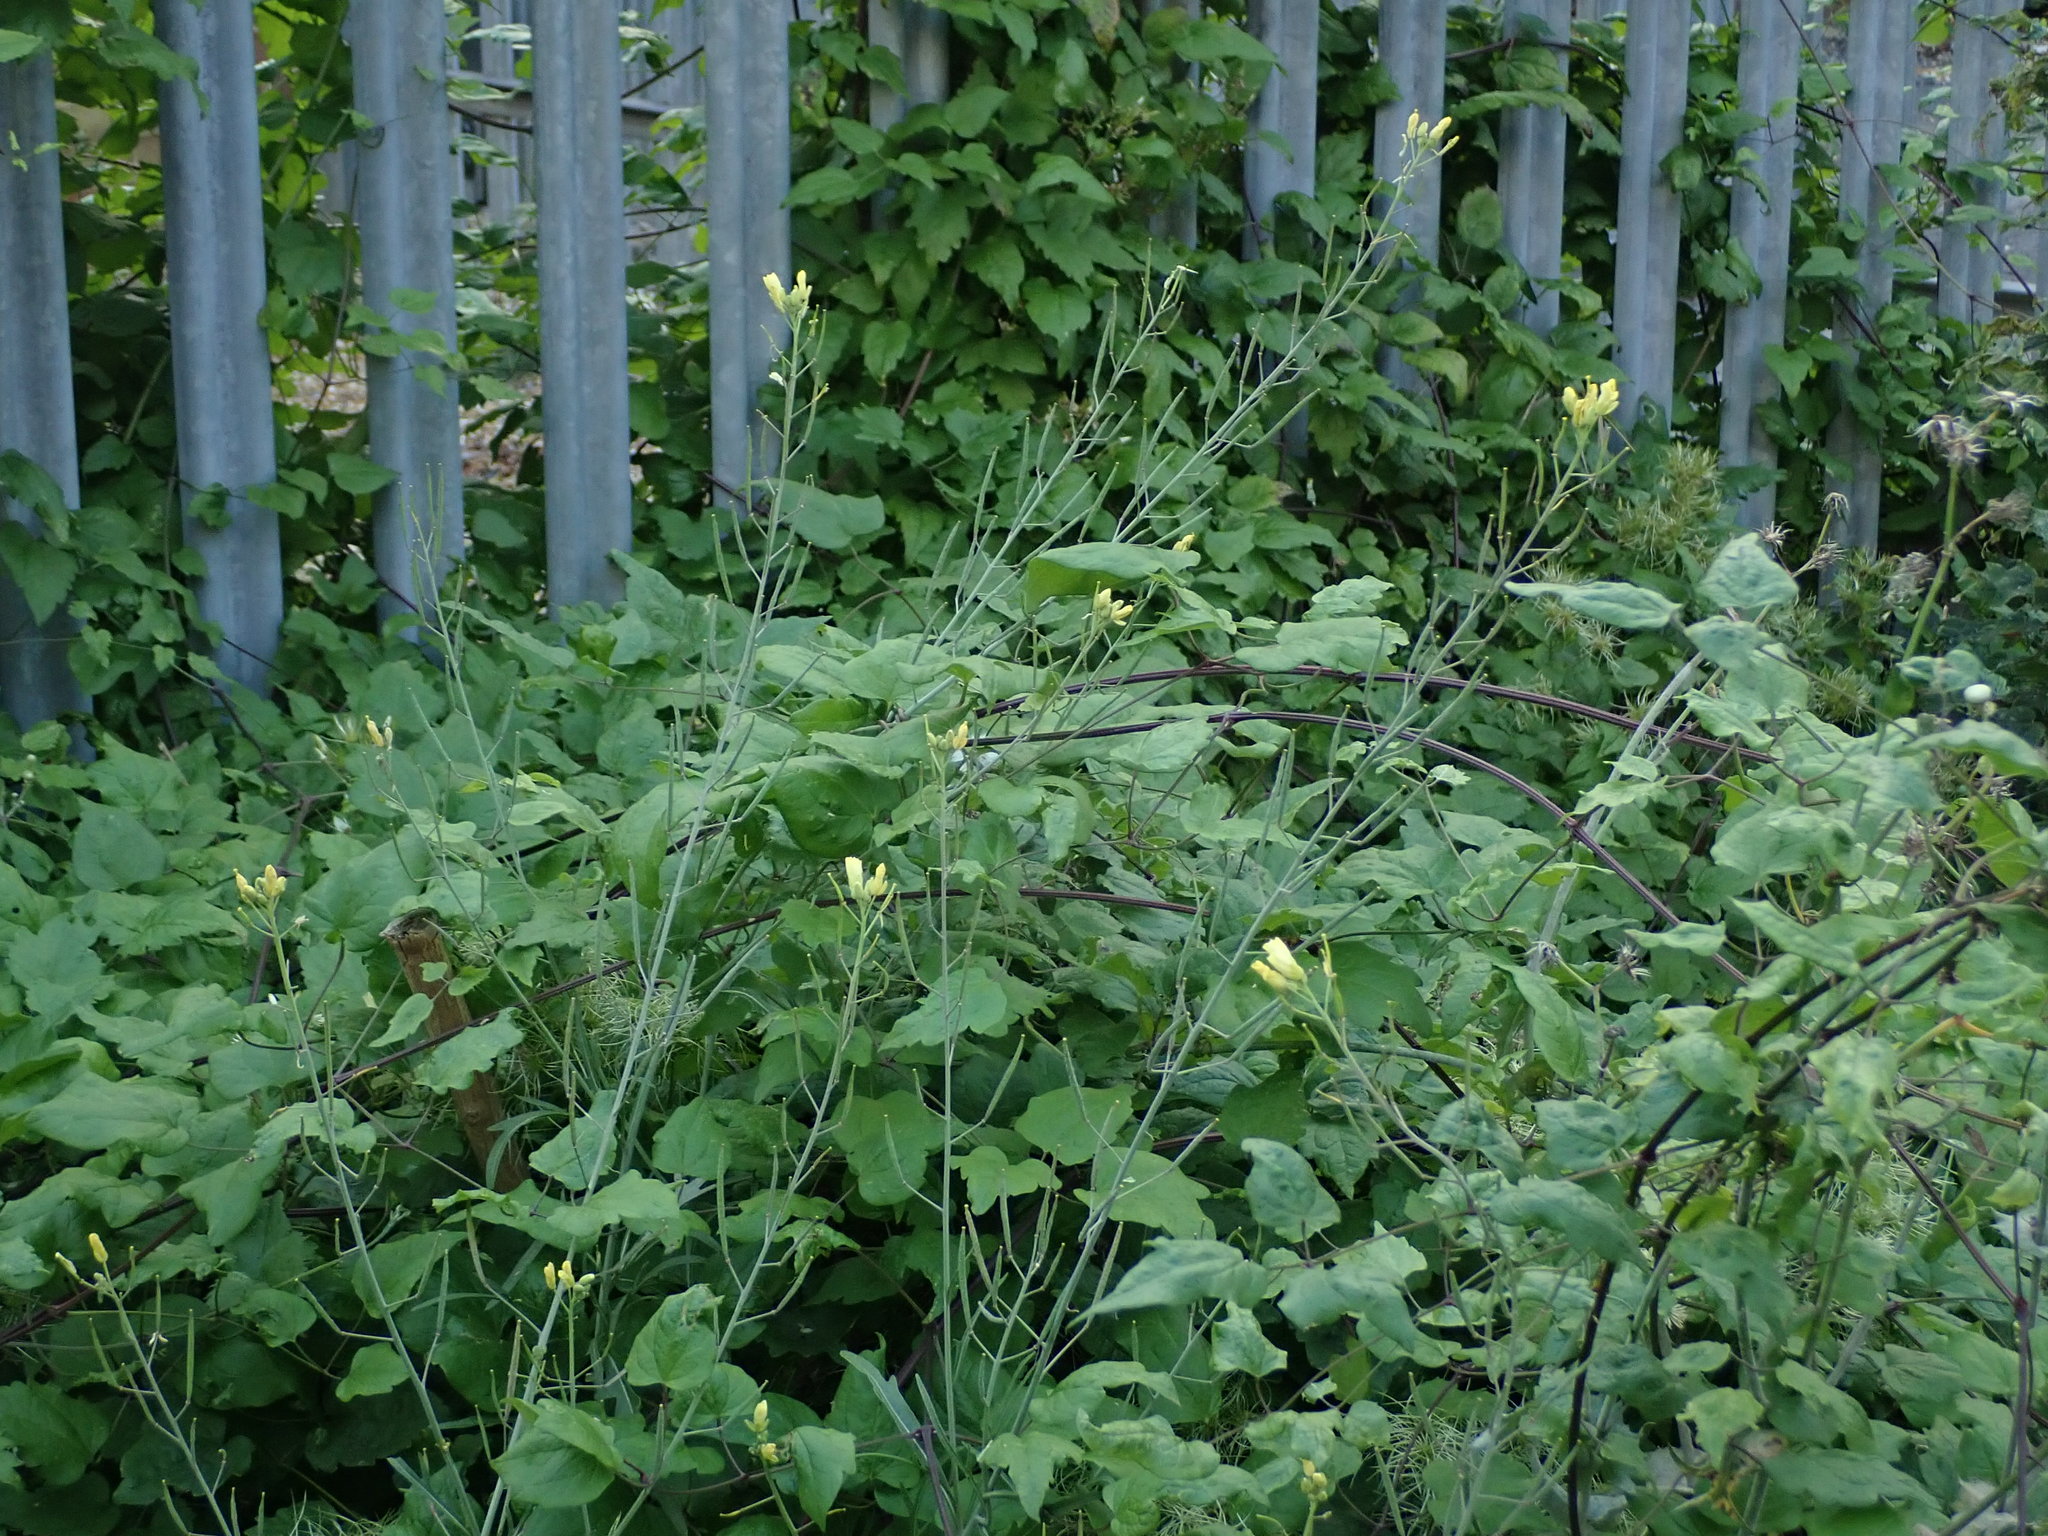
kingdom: Plantae
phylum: Tracheophyta
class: Magnoliopsida
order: Brassicales
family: Brassicaceae
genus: Diplotaxis
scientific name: Diplotaxis tenuifolia
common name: Perennial wall-rocket
